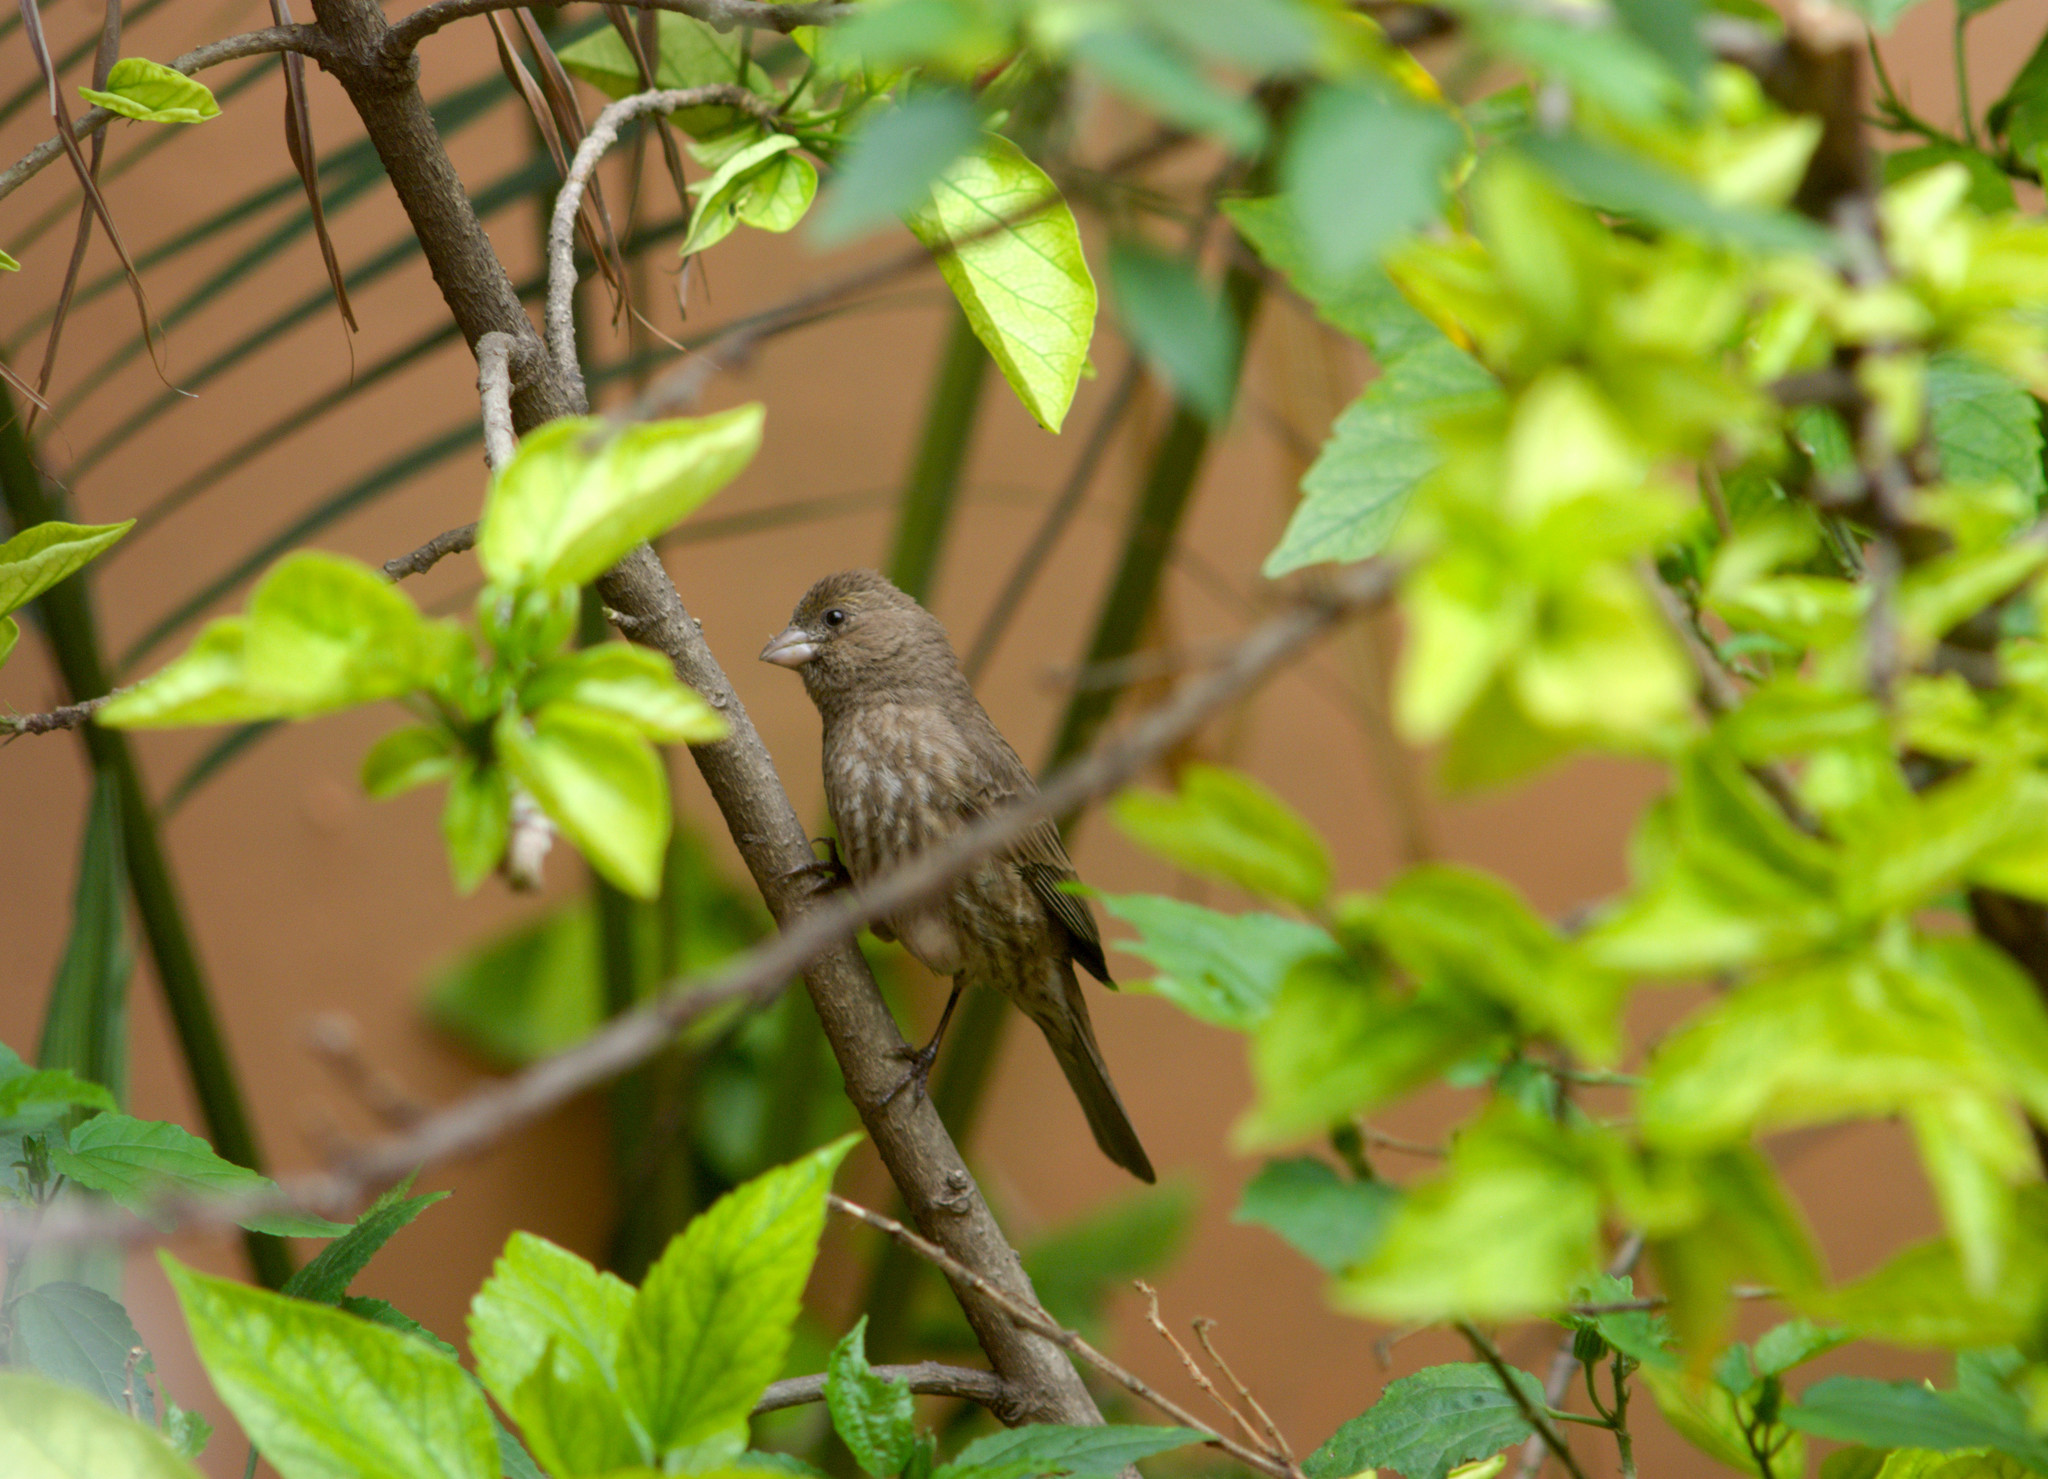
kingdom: Animalia
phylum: Chordata
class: Aves
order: Passeriformes
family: Fringillidae
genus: Haemorhous
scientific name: Haemorhous mexicanus
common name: House finch
